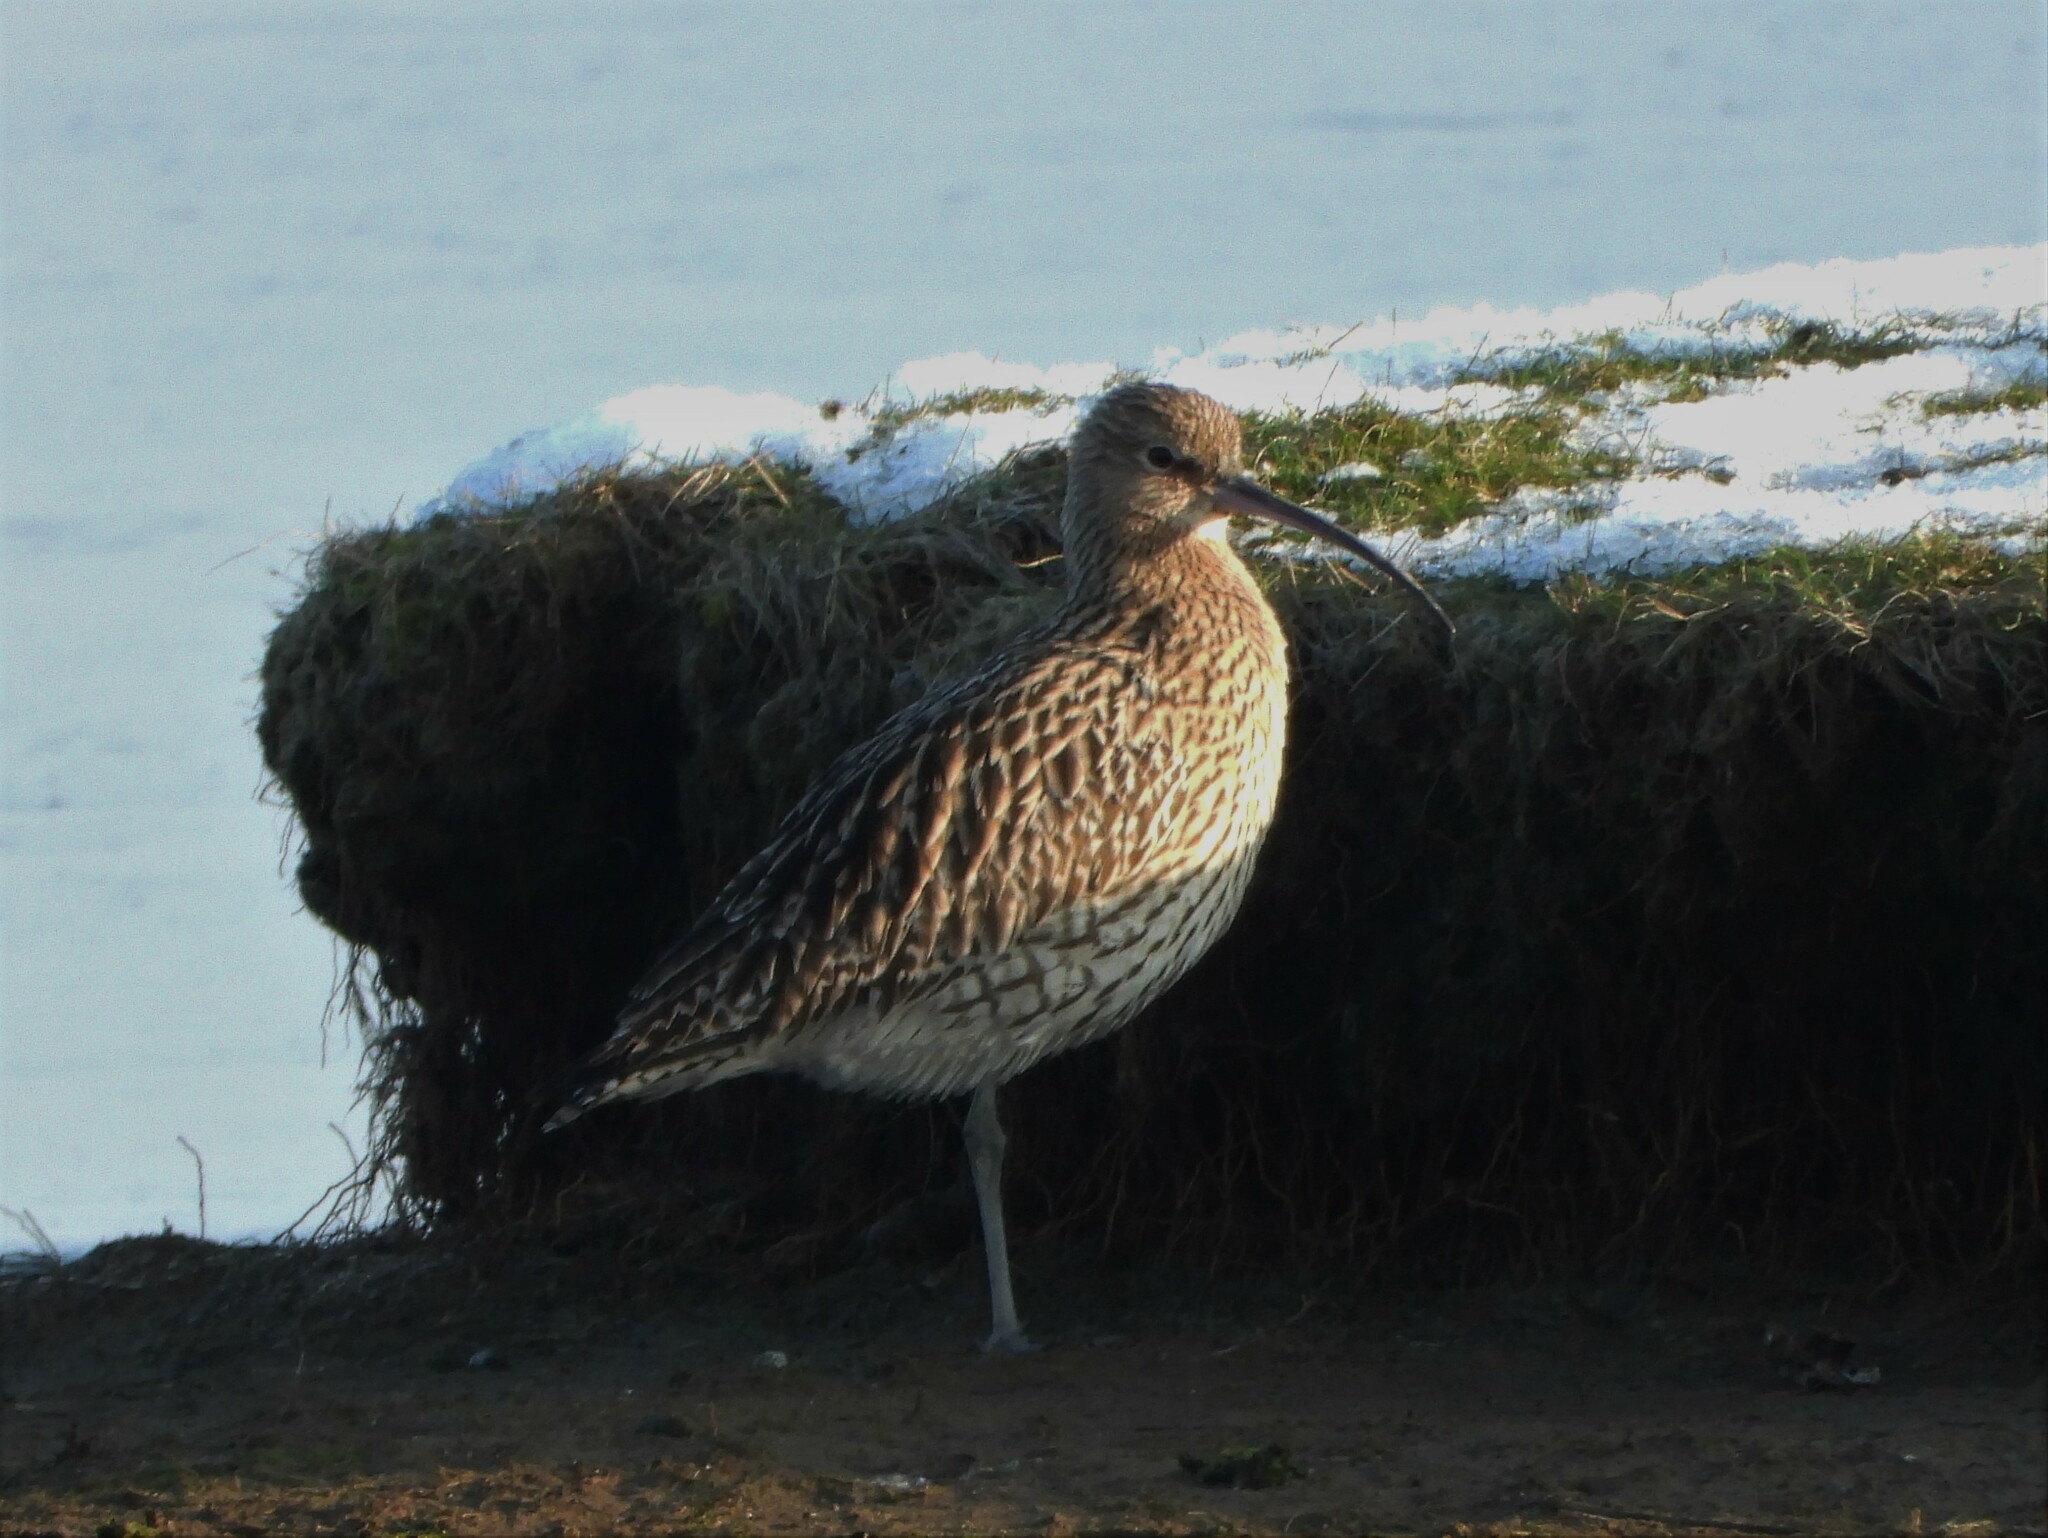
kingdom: Animalia
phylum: Chordata
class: Aves
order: Charadriiformes
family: Scolopacidae
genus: Numenius
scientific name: Numenius arquata
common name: Eurasian curlew
